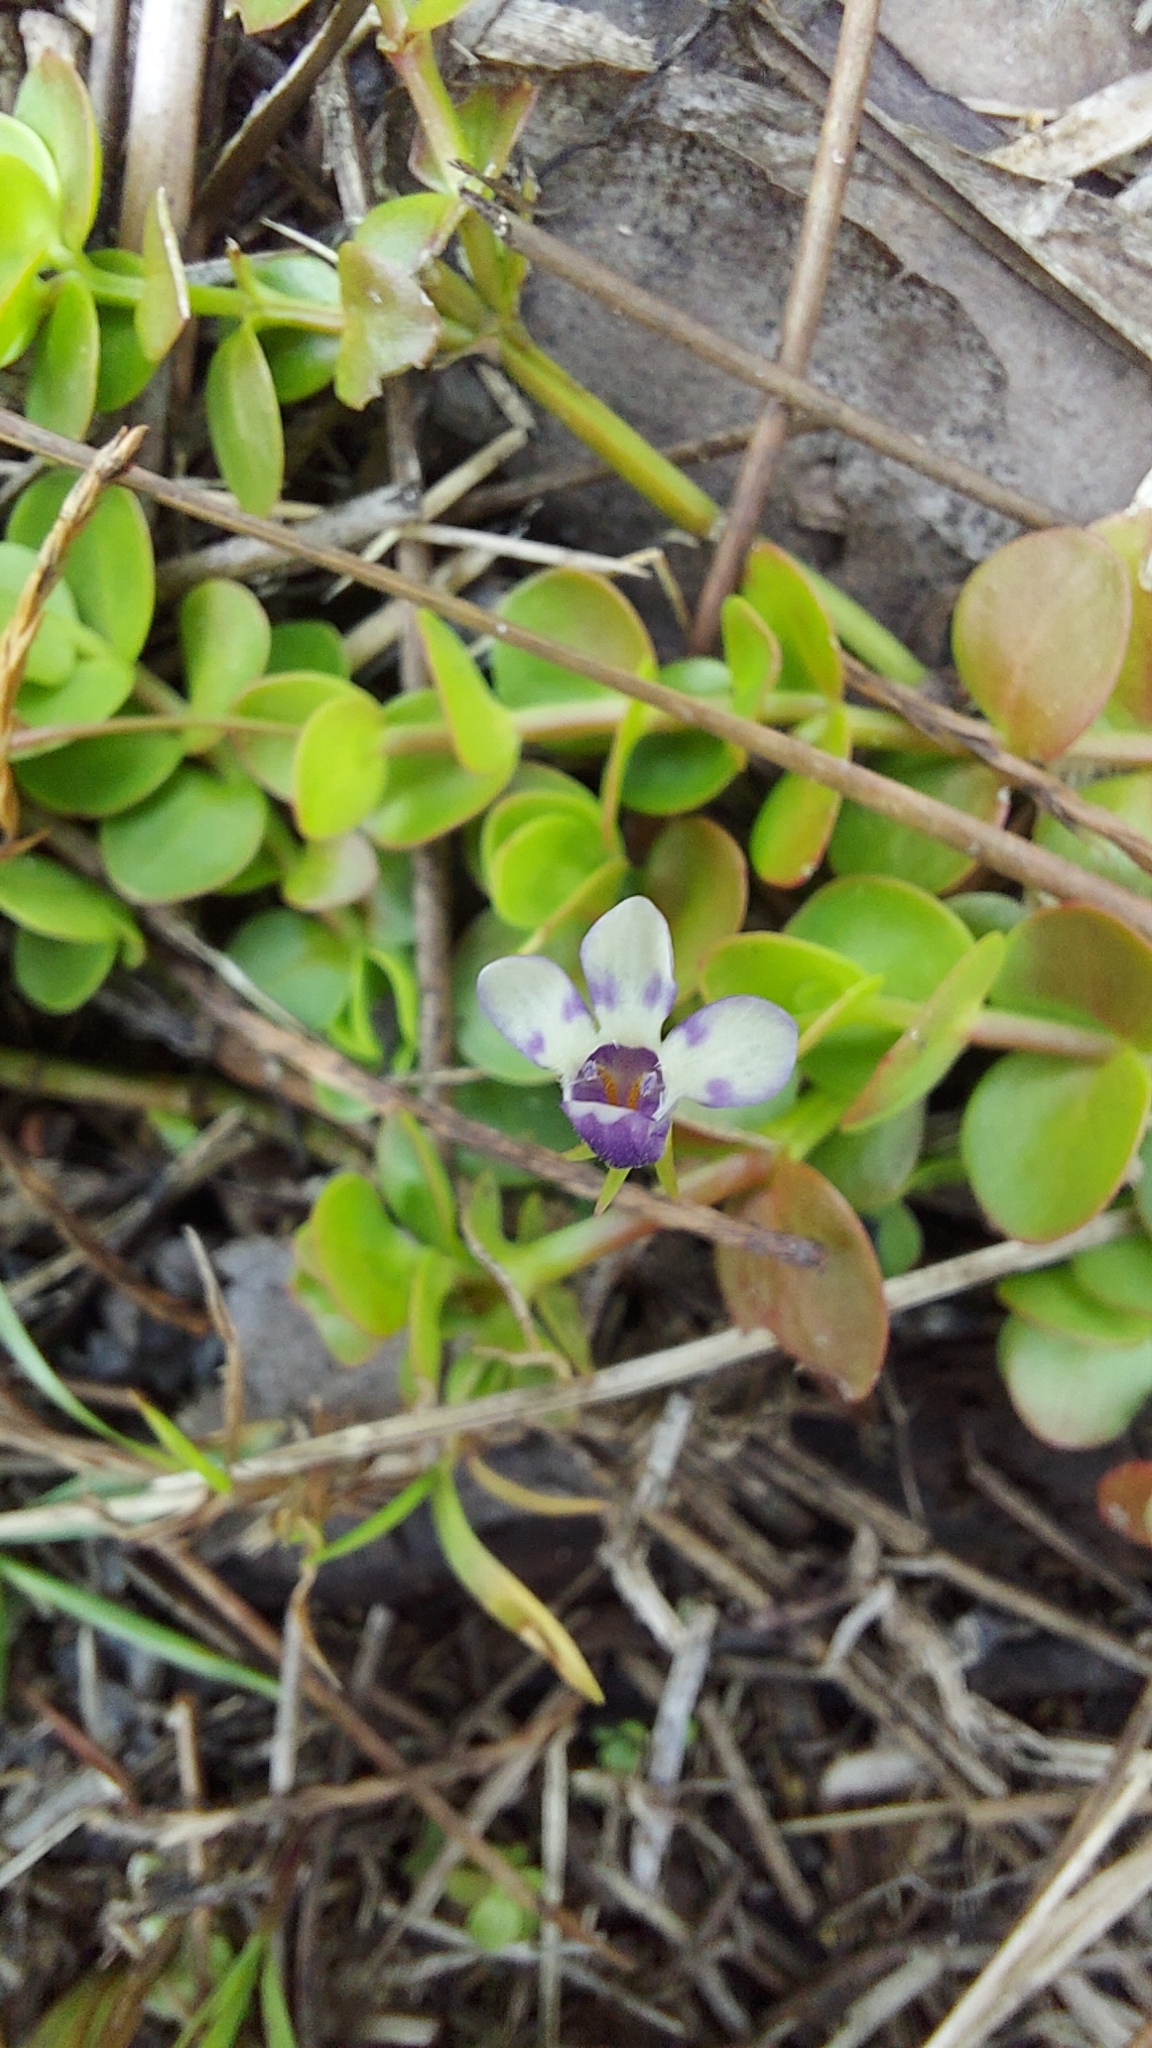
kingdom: Plantae
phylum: Tracheophyta
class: Magnoliopsida
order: Lamiales
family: Linderniaceae
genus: Lindernia
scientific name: Lindernia grandiflora
